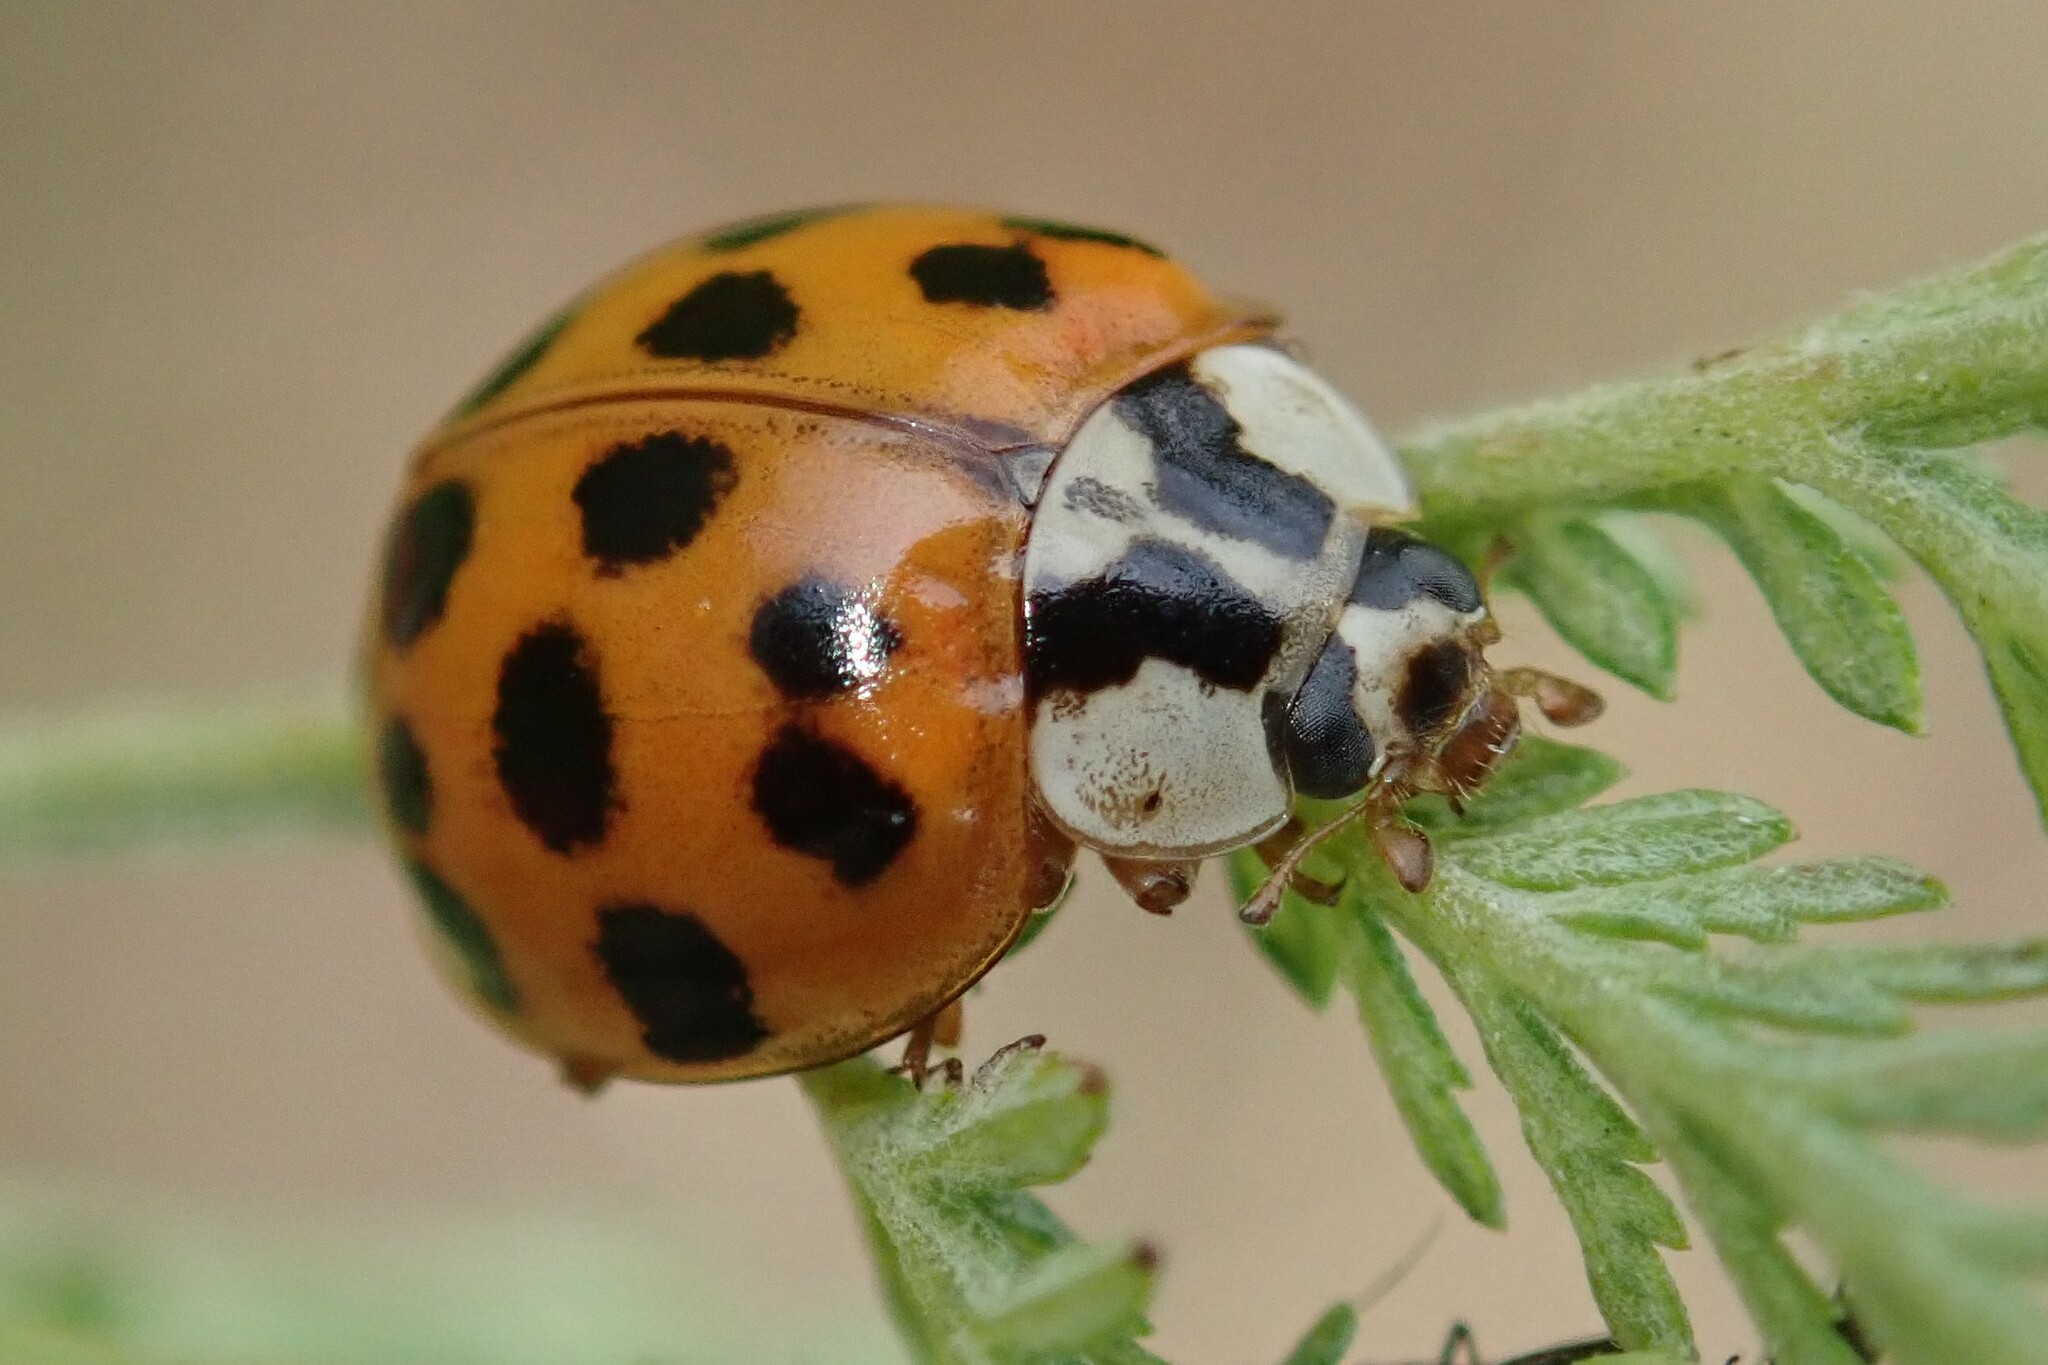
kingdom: Animalia
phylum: Arthropoda
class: Insecta
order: Coleoptera
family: Coccinellidae
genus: Harmonia
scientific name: Harmonia axyridis
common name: Harlequin ladybird
